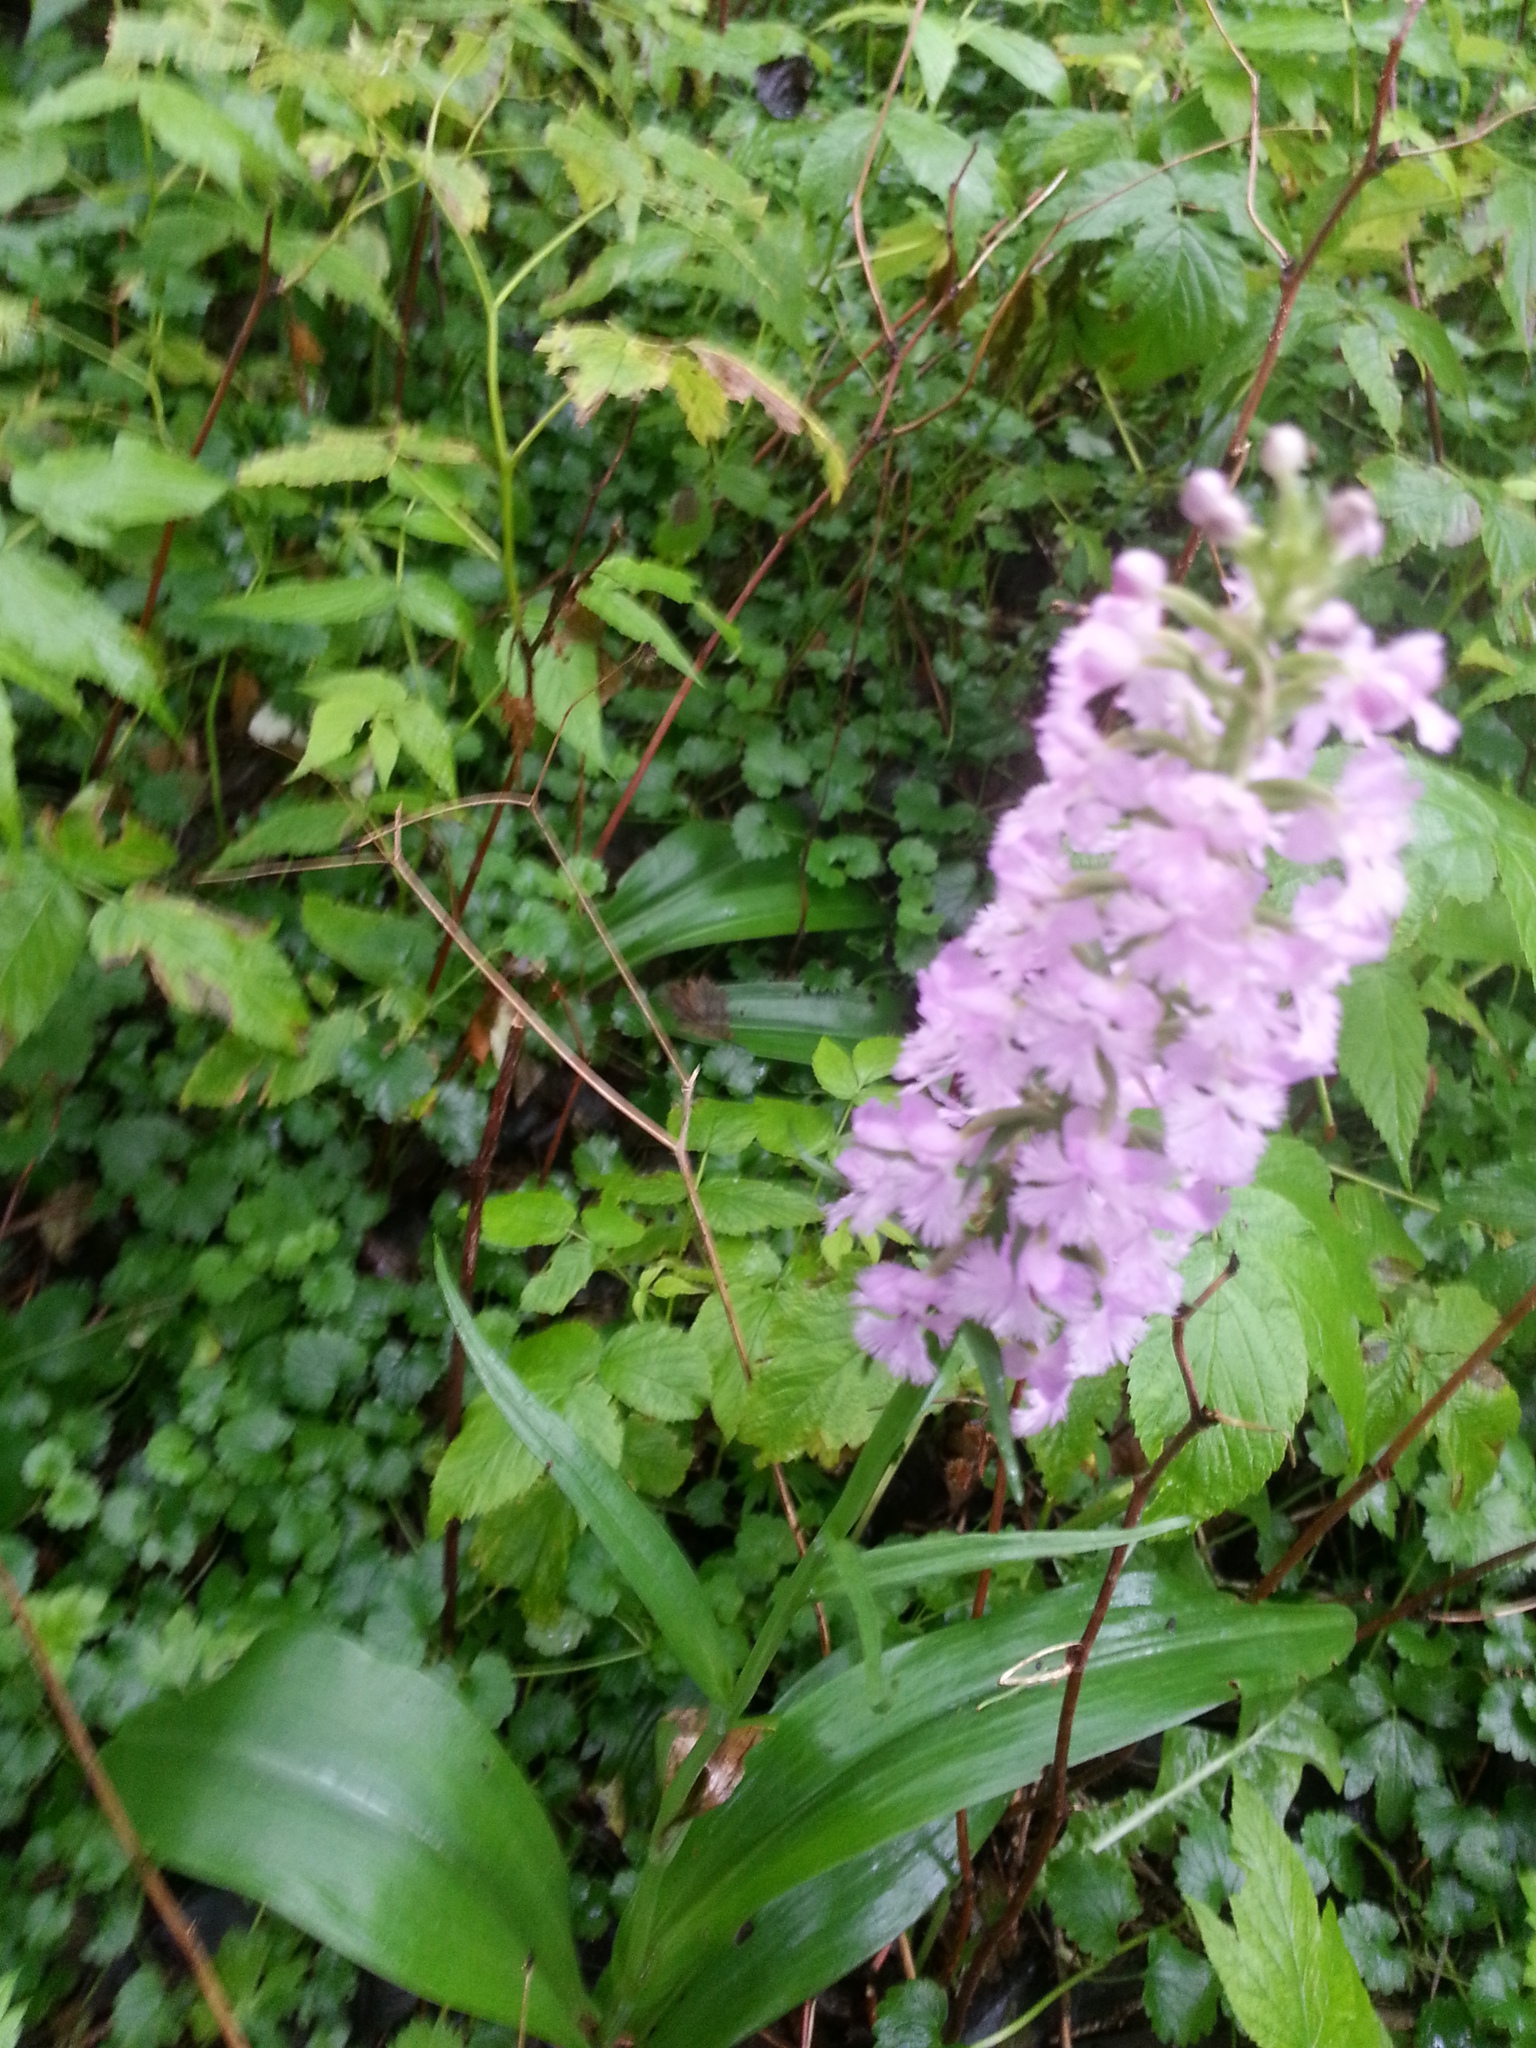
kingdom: Plantae
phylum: Tracheophyta
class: Liliopsida
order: Asparagales
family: Orchidaceae
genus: Platanthera
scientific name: Platanthera psycodes
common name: Lesser purple fringed orchid
